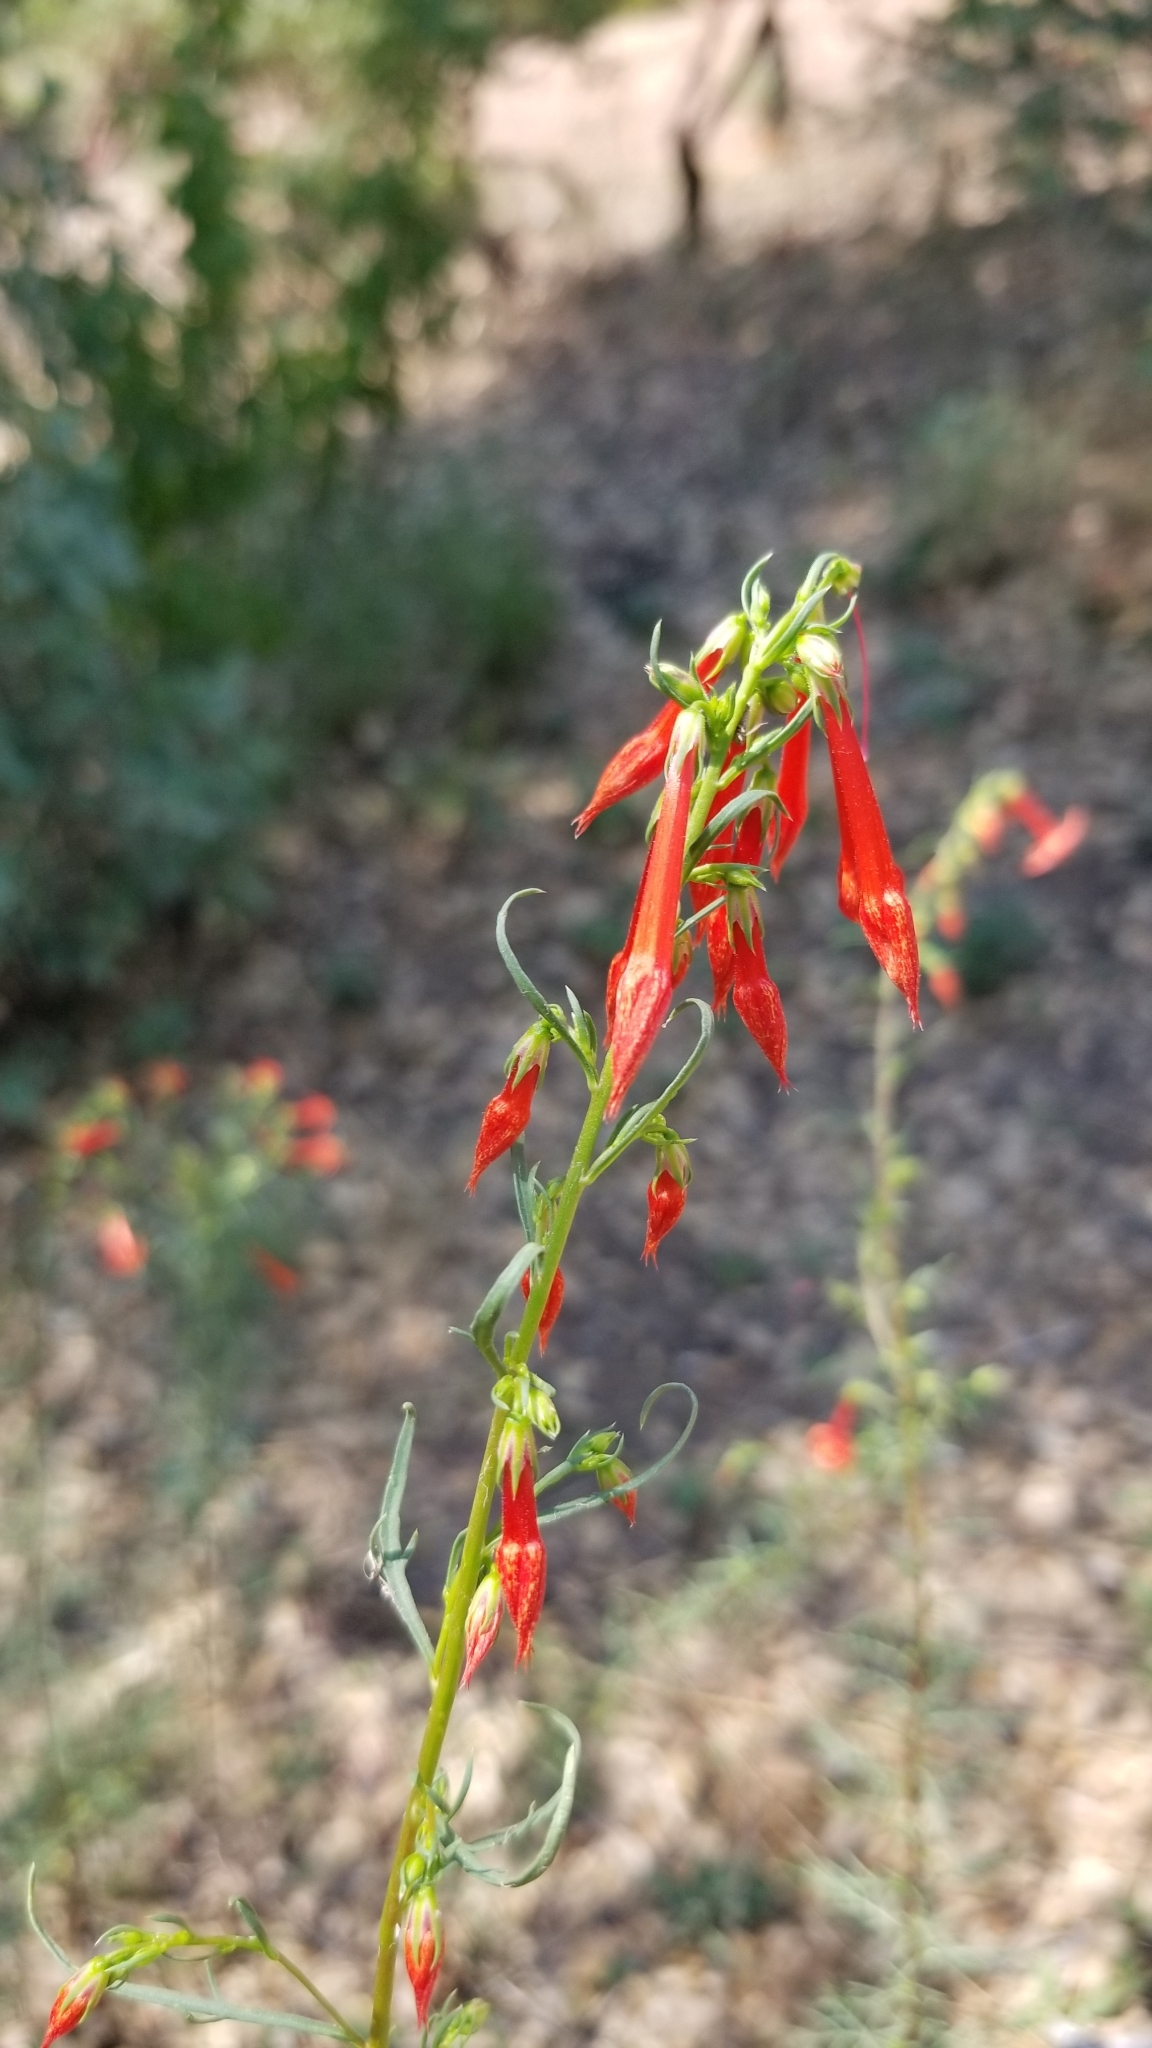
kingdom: Plantae
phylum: Tracheophyta
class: Magnoliopsida
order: Ericales
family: Polemoniaceae
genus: Ipomopsis
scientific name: Ipomopsis aggregata
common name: Scarlet gilia
